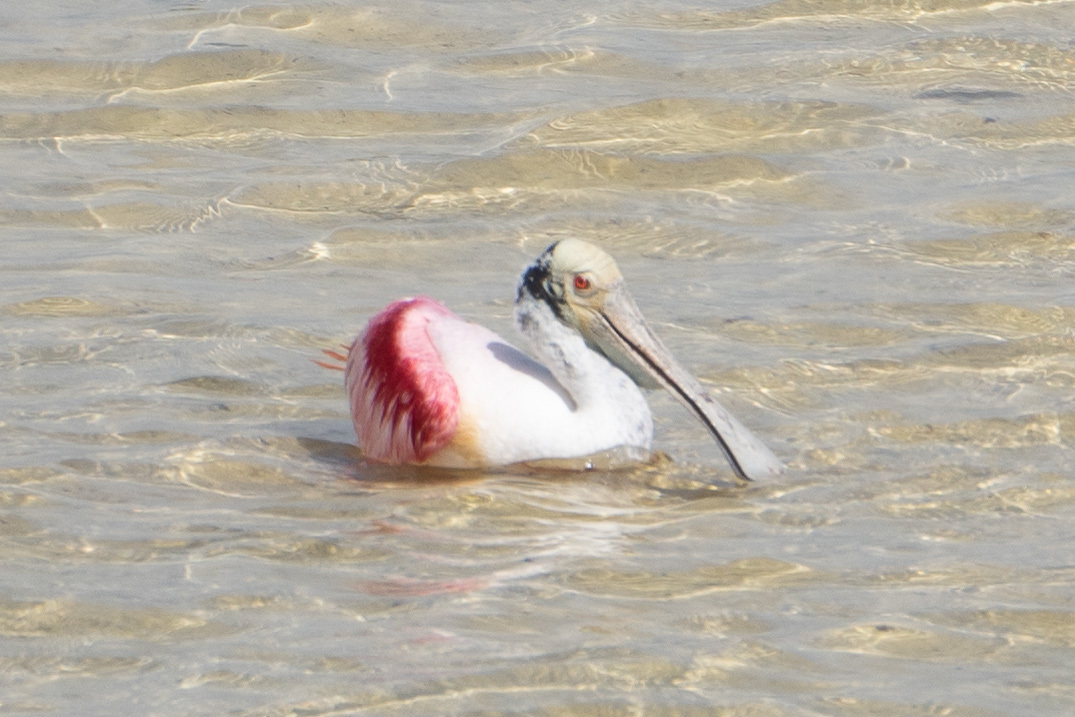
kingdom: Animalia
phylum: Chordata
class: Aves
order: Pelecaniformes
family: Threskiornithidae
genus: Platalea
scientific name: Platalea ajaja
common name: Roseate spoonbill
